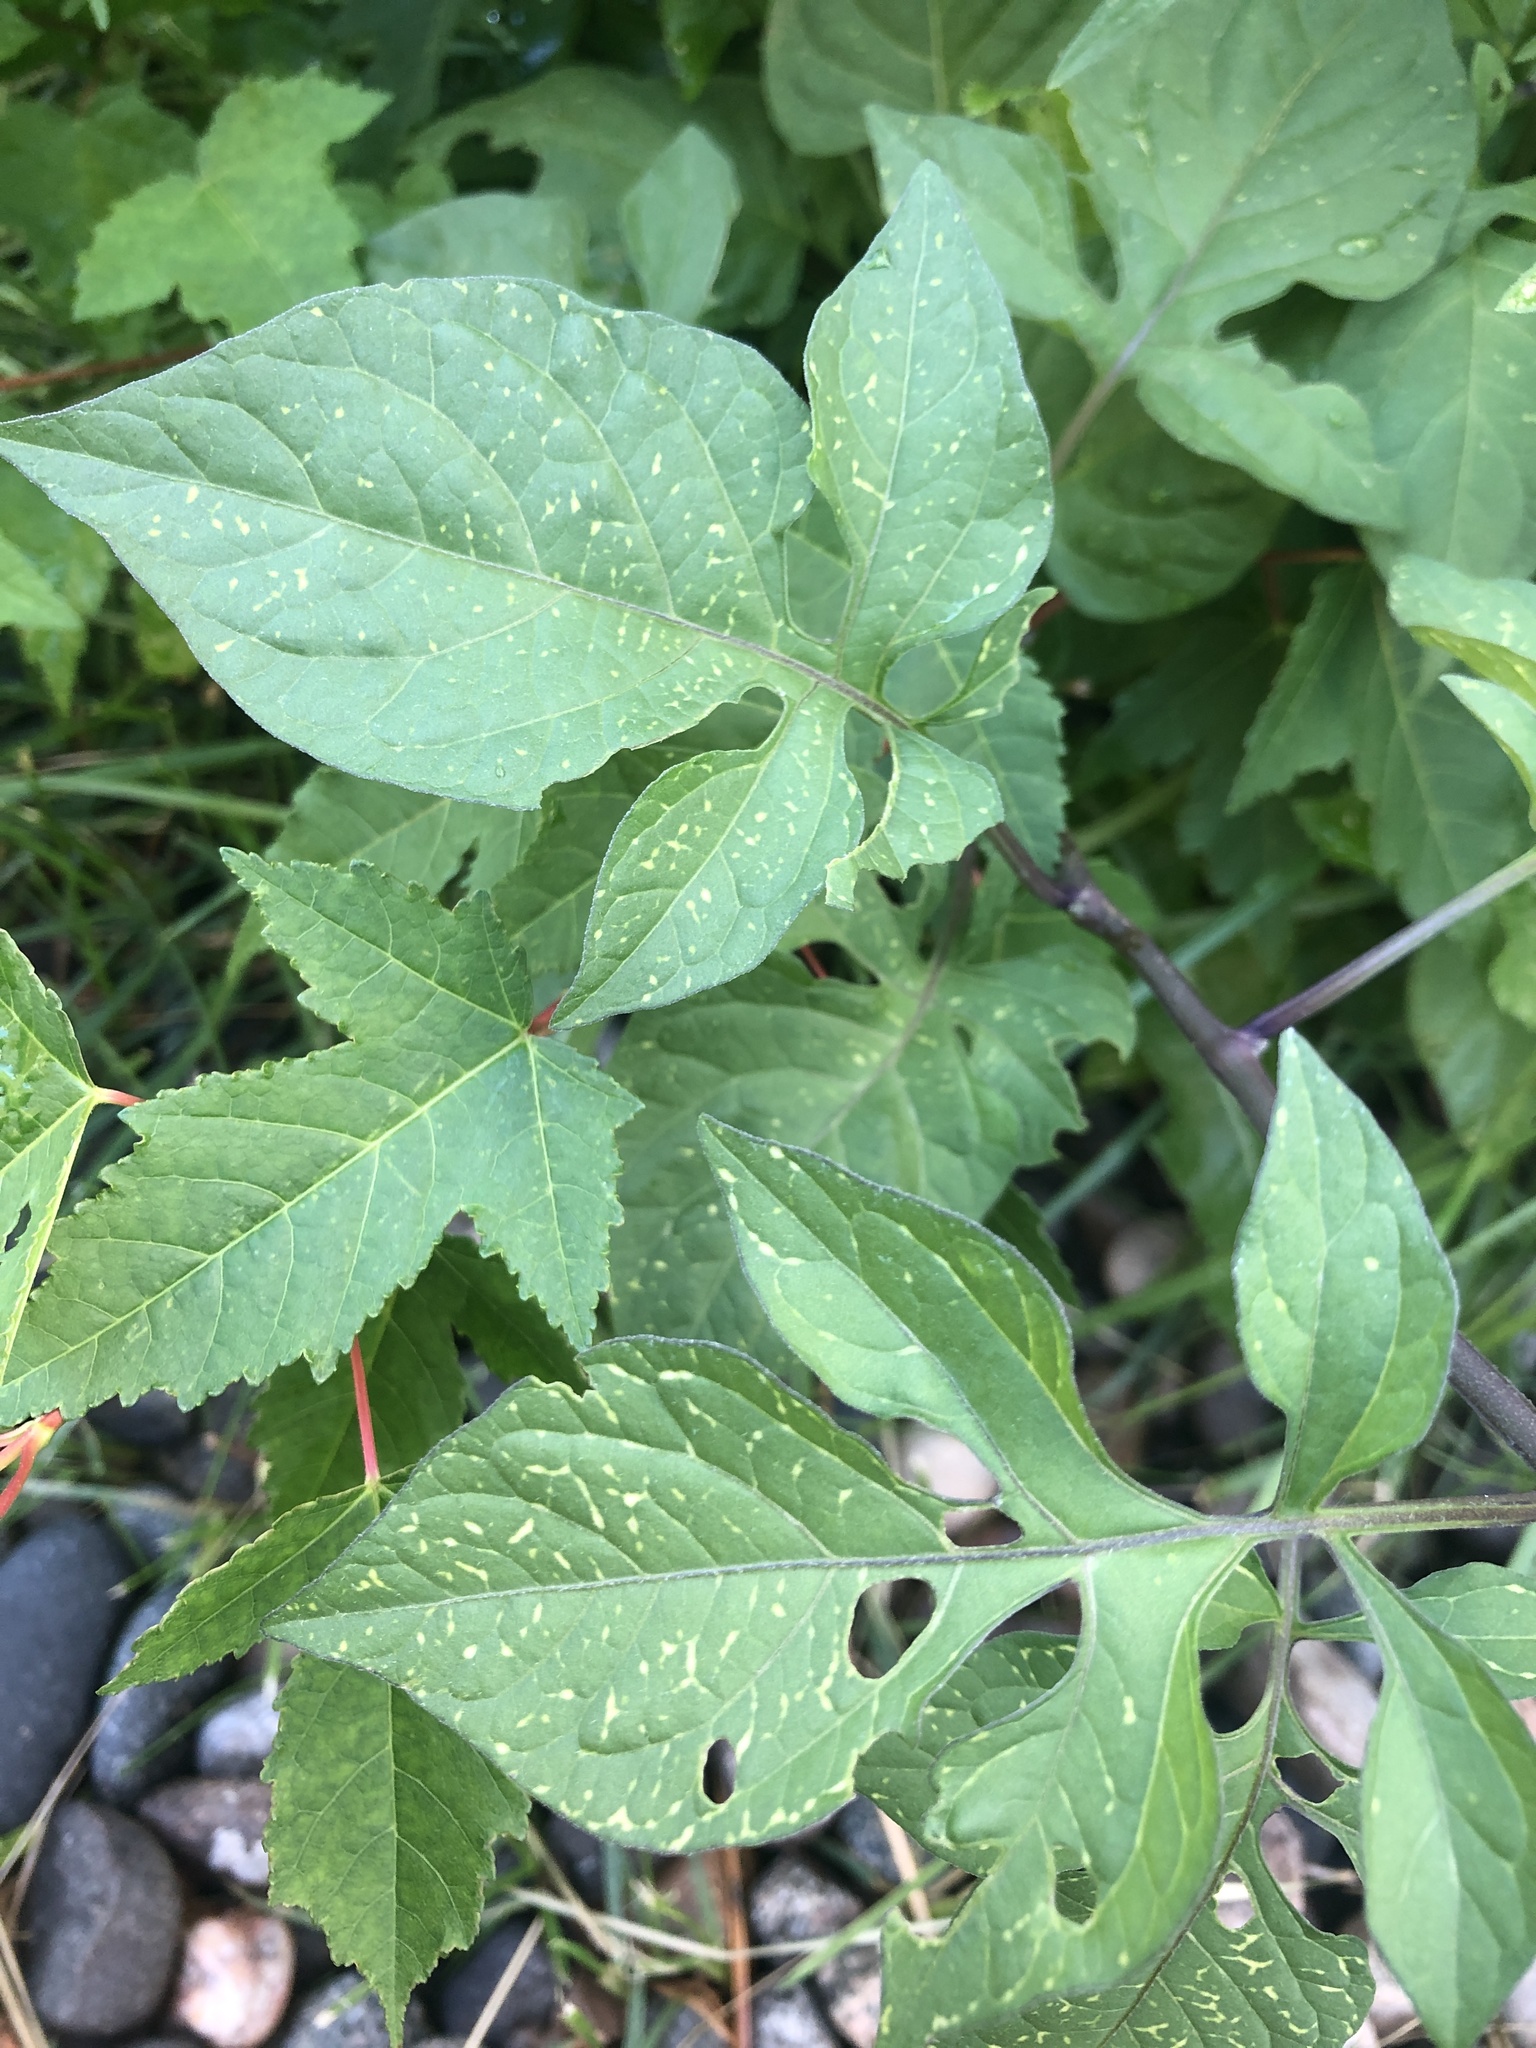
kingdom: Plantae
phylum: Tracheophyta
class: Magnoliopsida
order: Solanales
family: Solanaceae
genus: Solanum
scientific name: Solanum dulcamara
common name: Climbing nightshade
